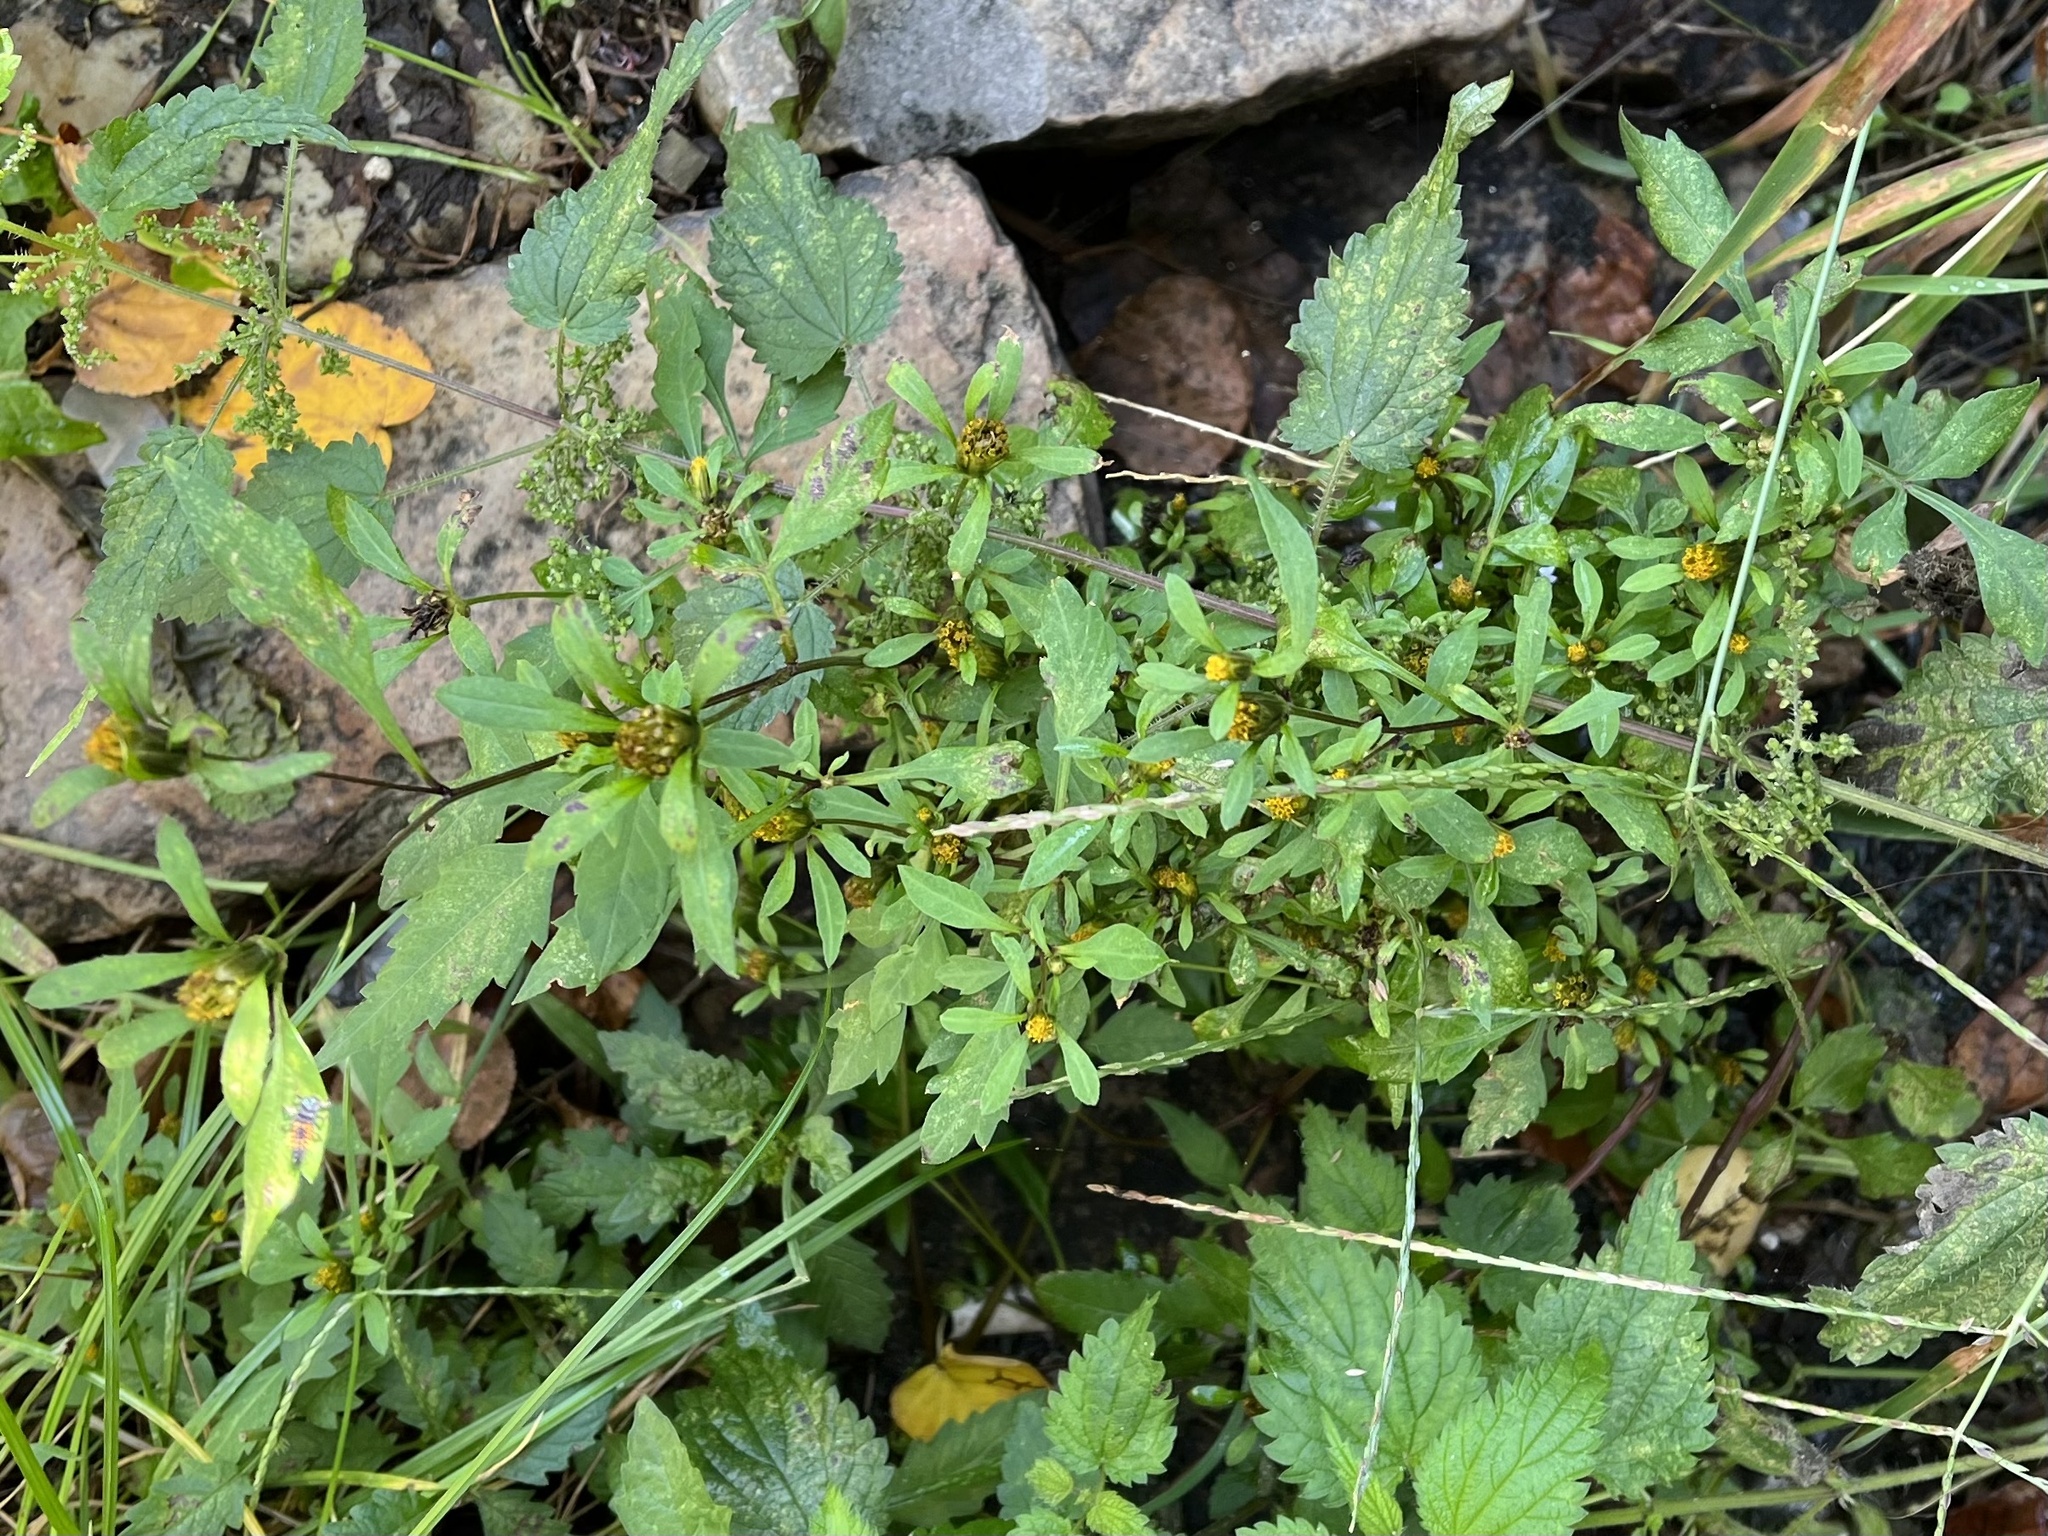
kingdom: Plantae
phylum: Tracheophyta
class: Magnoliopsida
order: Asterales
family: Asteraceae
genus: Bidens
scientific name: Bidens frondosa
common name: Beggarticks
